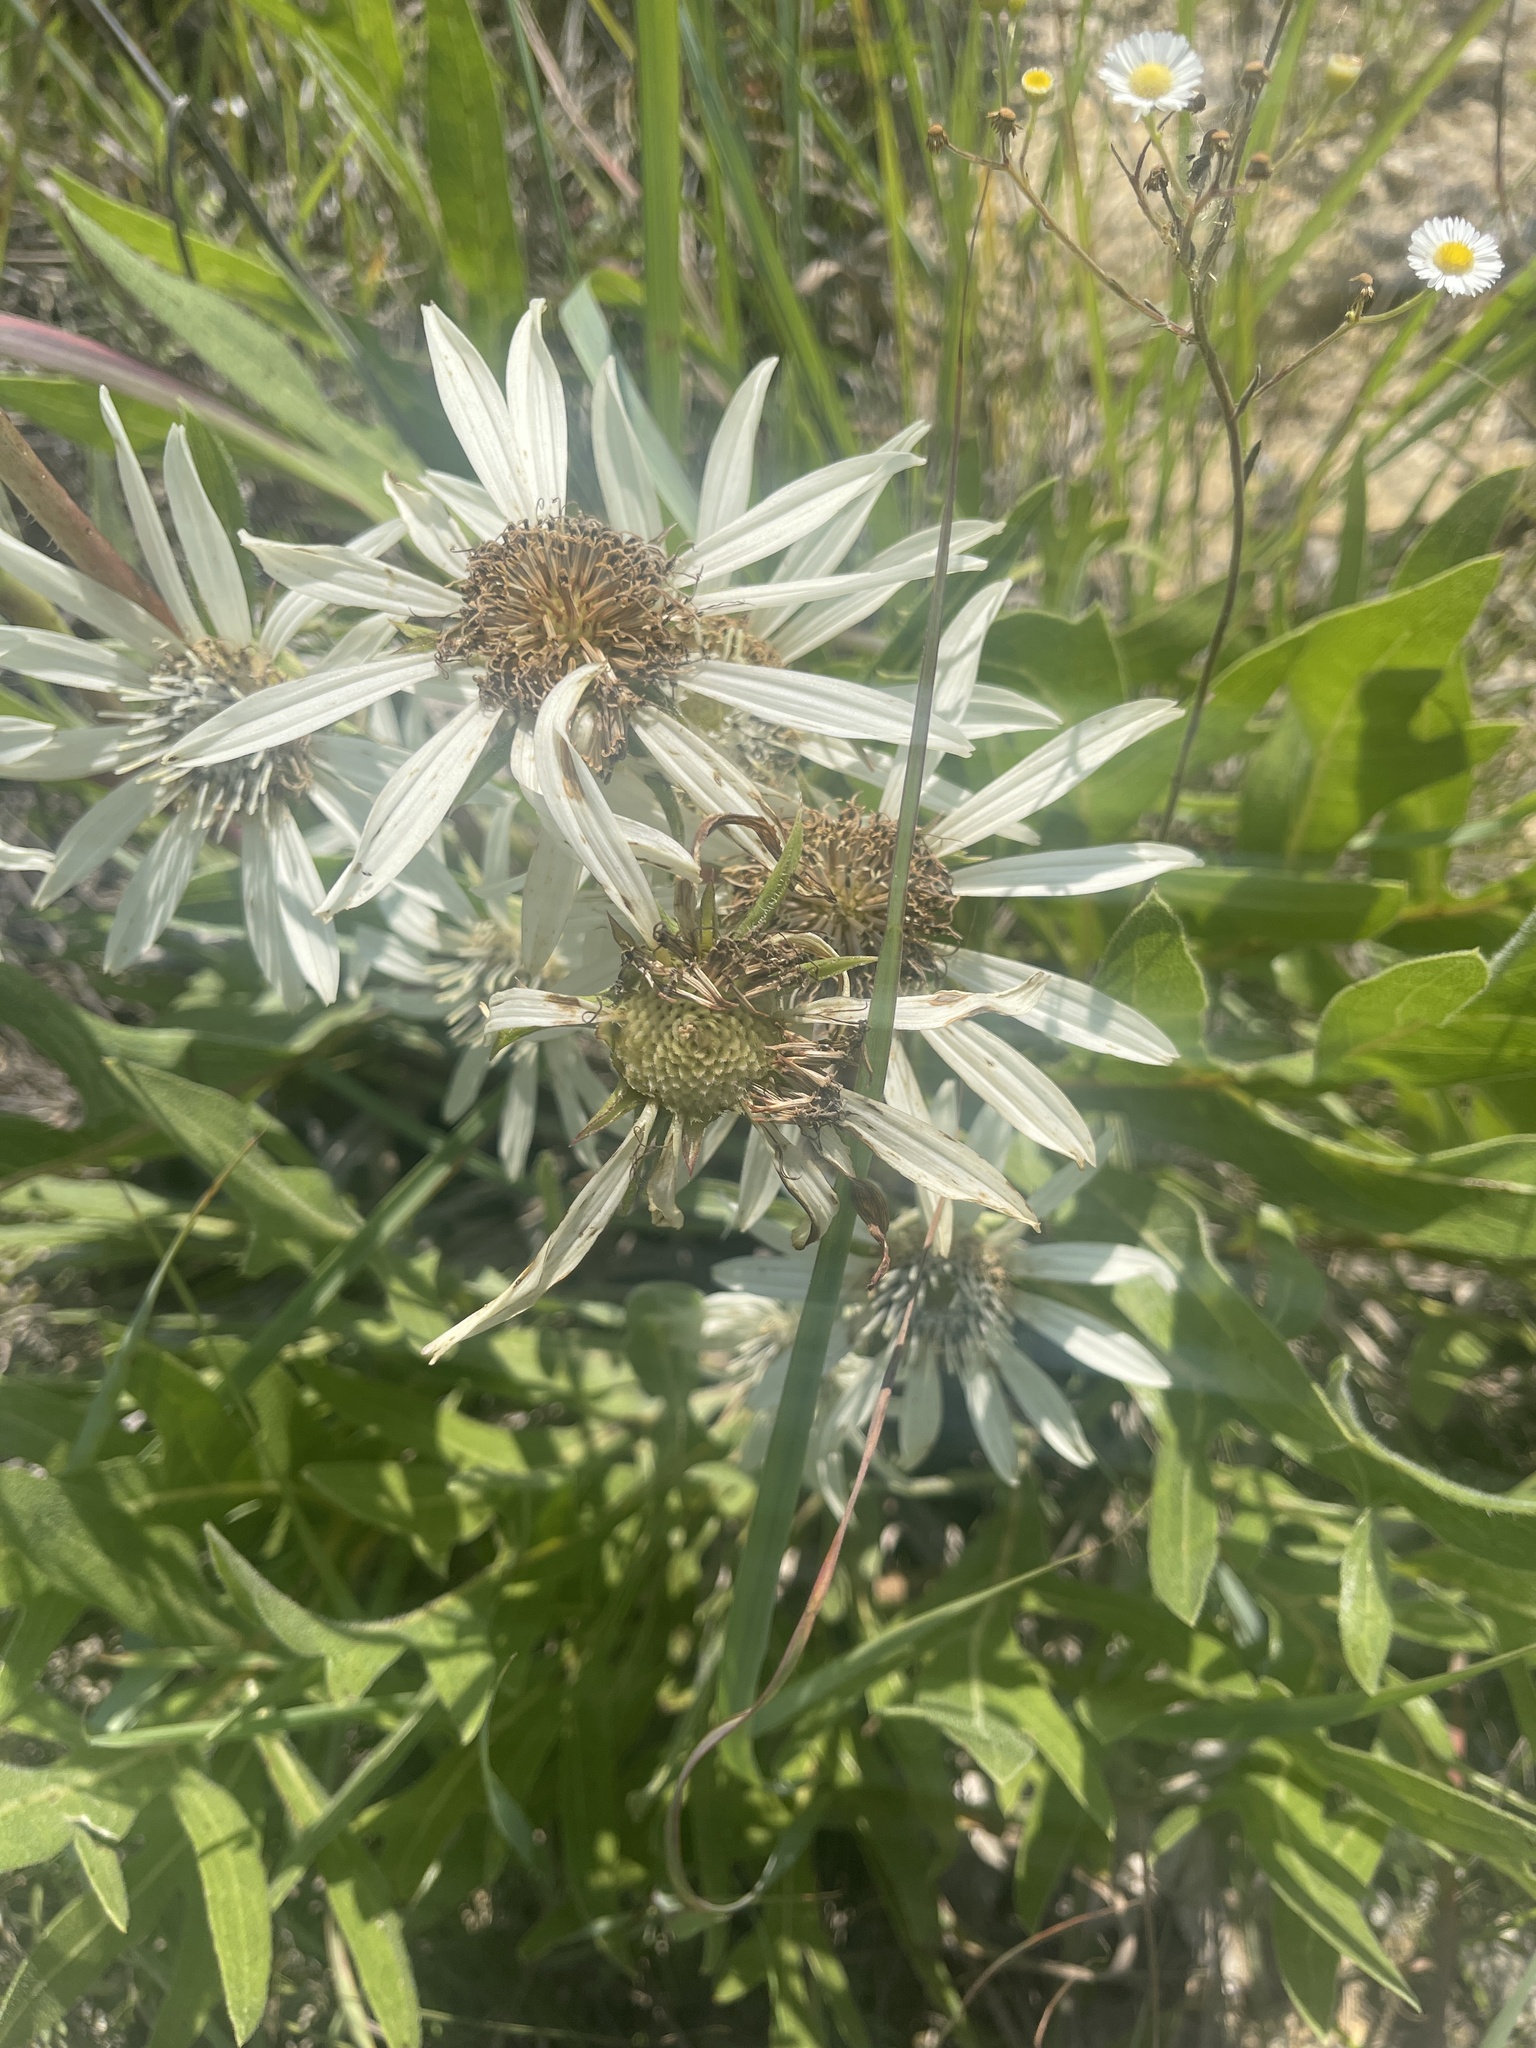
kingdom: Plantae
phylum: Tracheophyta
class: Magnoliopsida
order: Asterales
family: Asteraceae
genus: Silphium
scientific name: Silphium albiflorum
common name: White rosinweed
